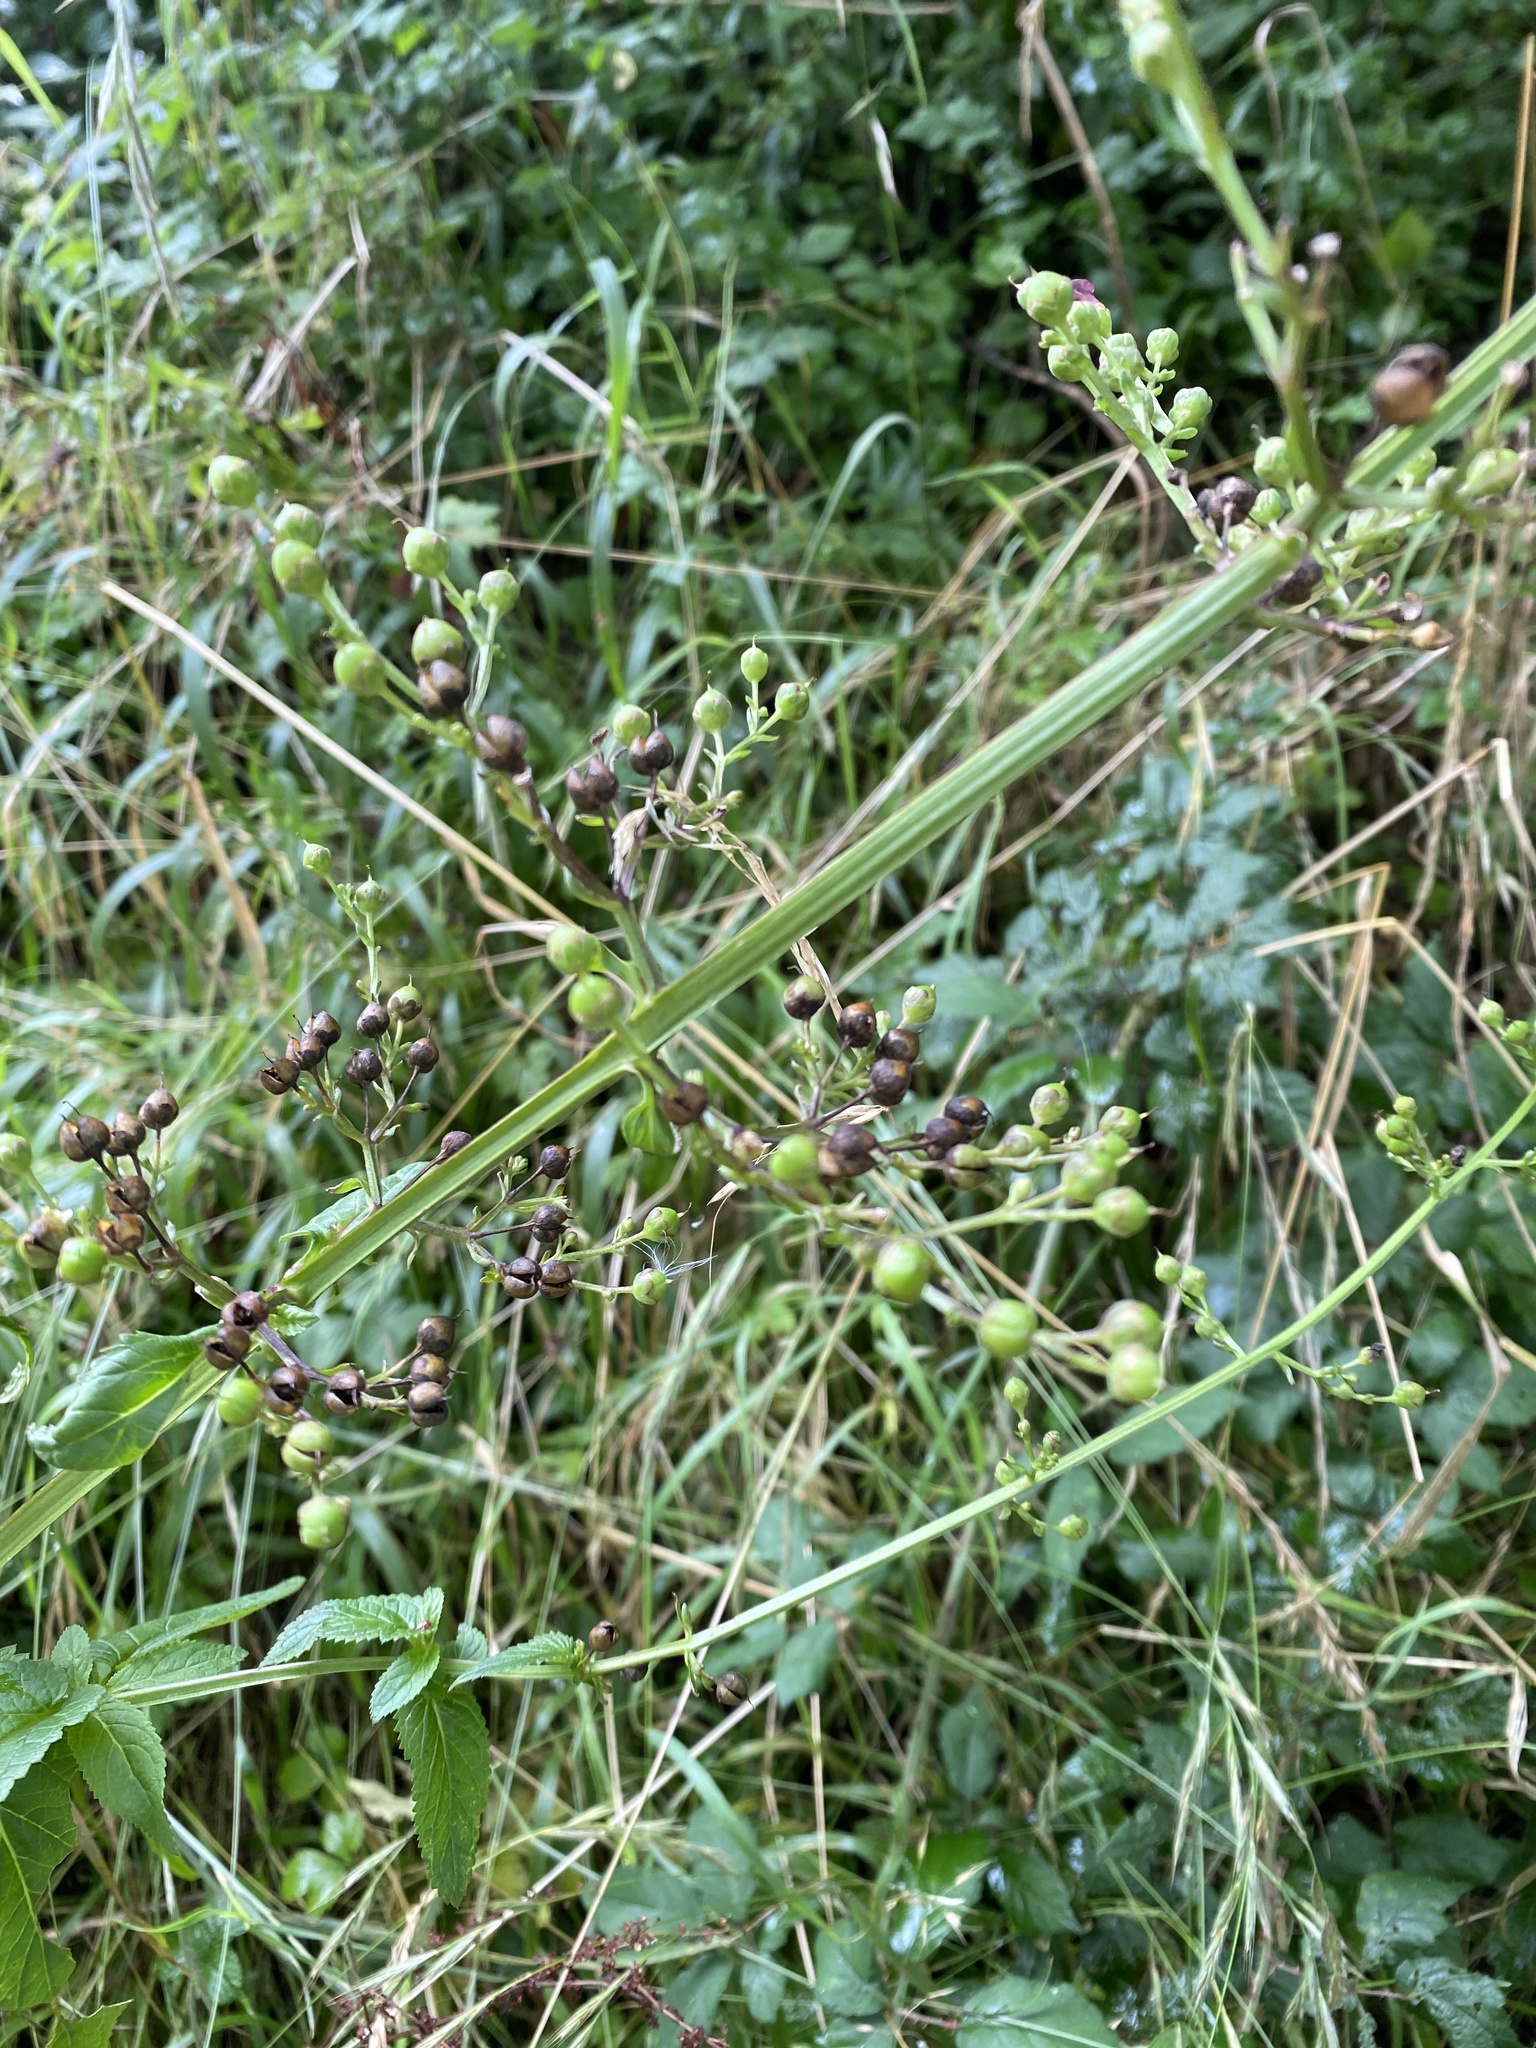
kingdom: Plantae
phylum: Tracheophyta
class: Magnoliopsida
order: Lamiales
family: Scrophulariaceae
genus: Scrophularia
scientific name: Scrophularia auriculata
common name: Water betony
